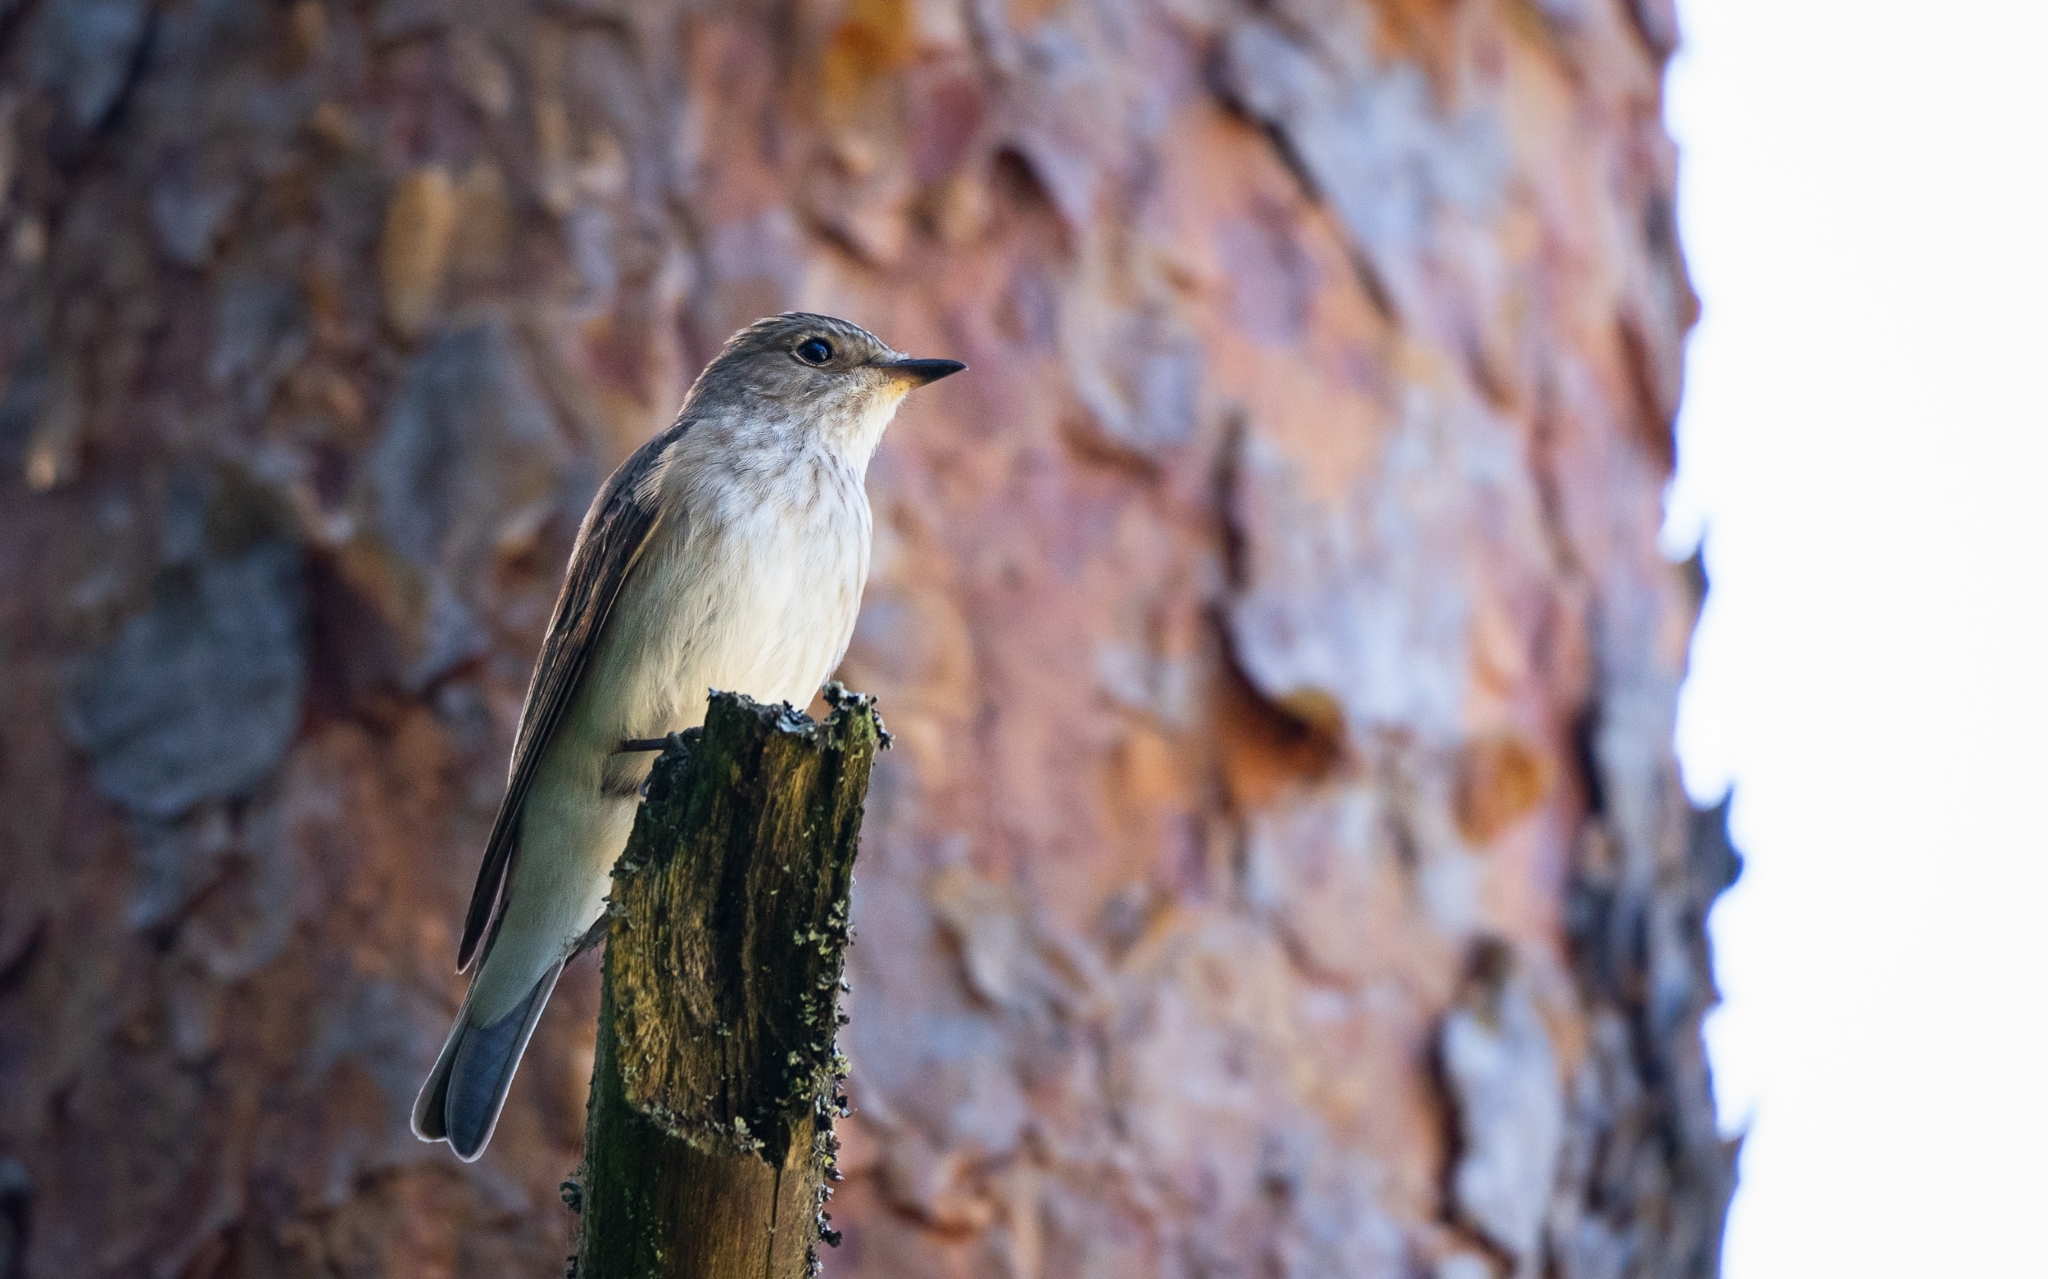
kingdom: Animalia
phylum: Chordata
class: Aves
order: Passeriformes
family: Muscicapidae
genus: Muscicapa
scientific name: Muscicapa striata
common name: Spotted flycatcher
